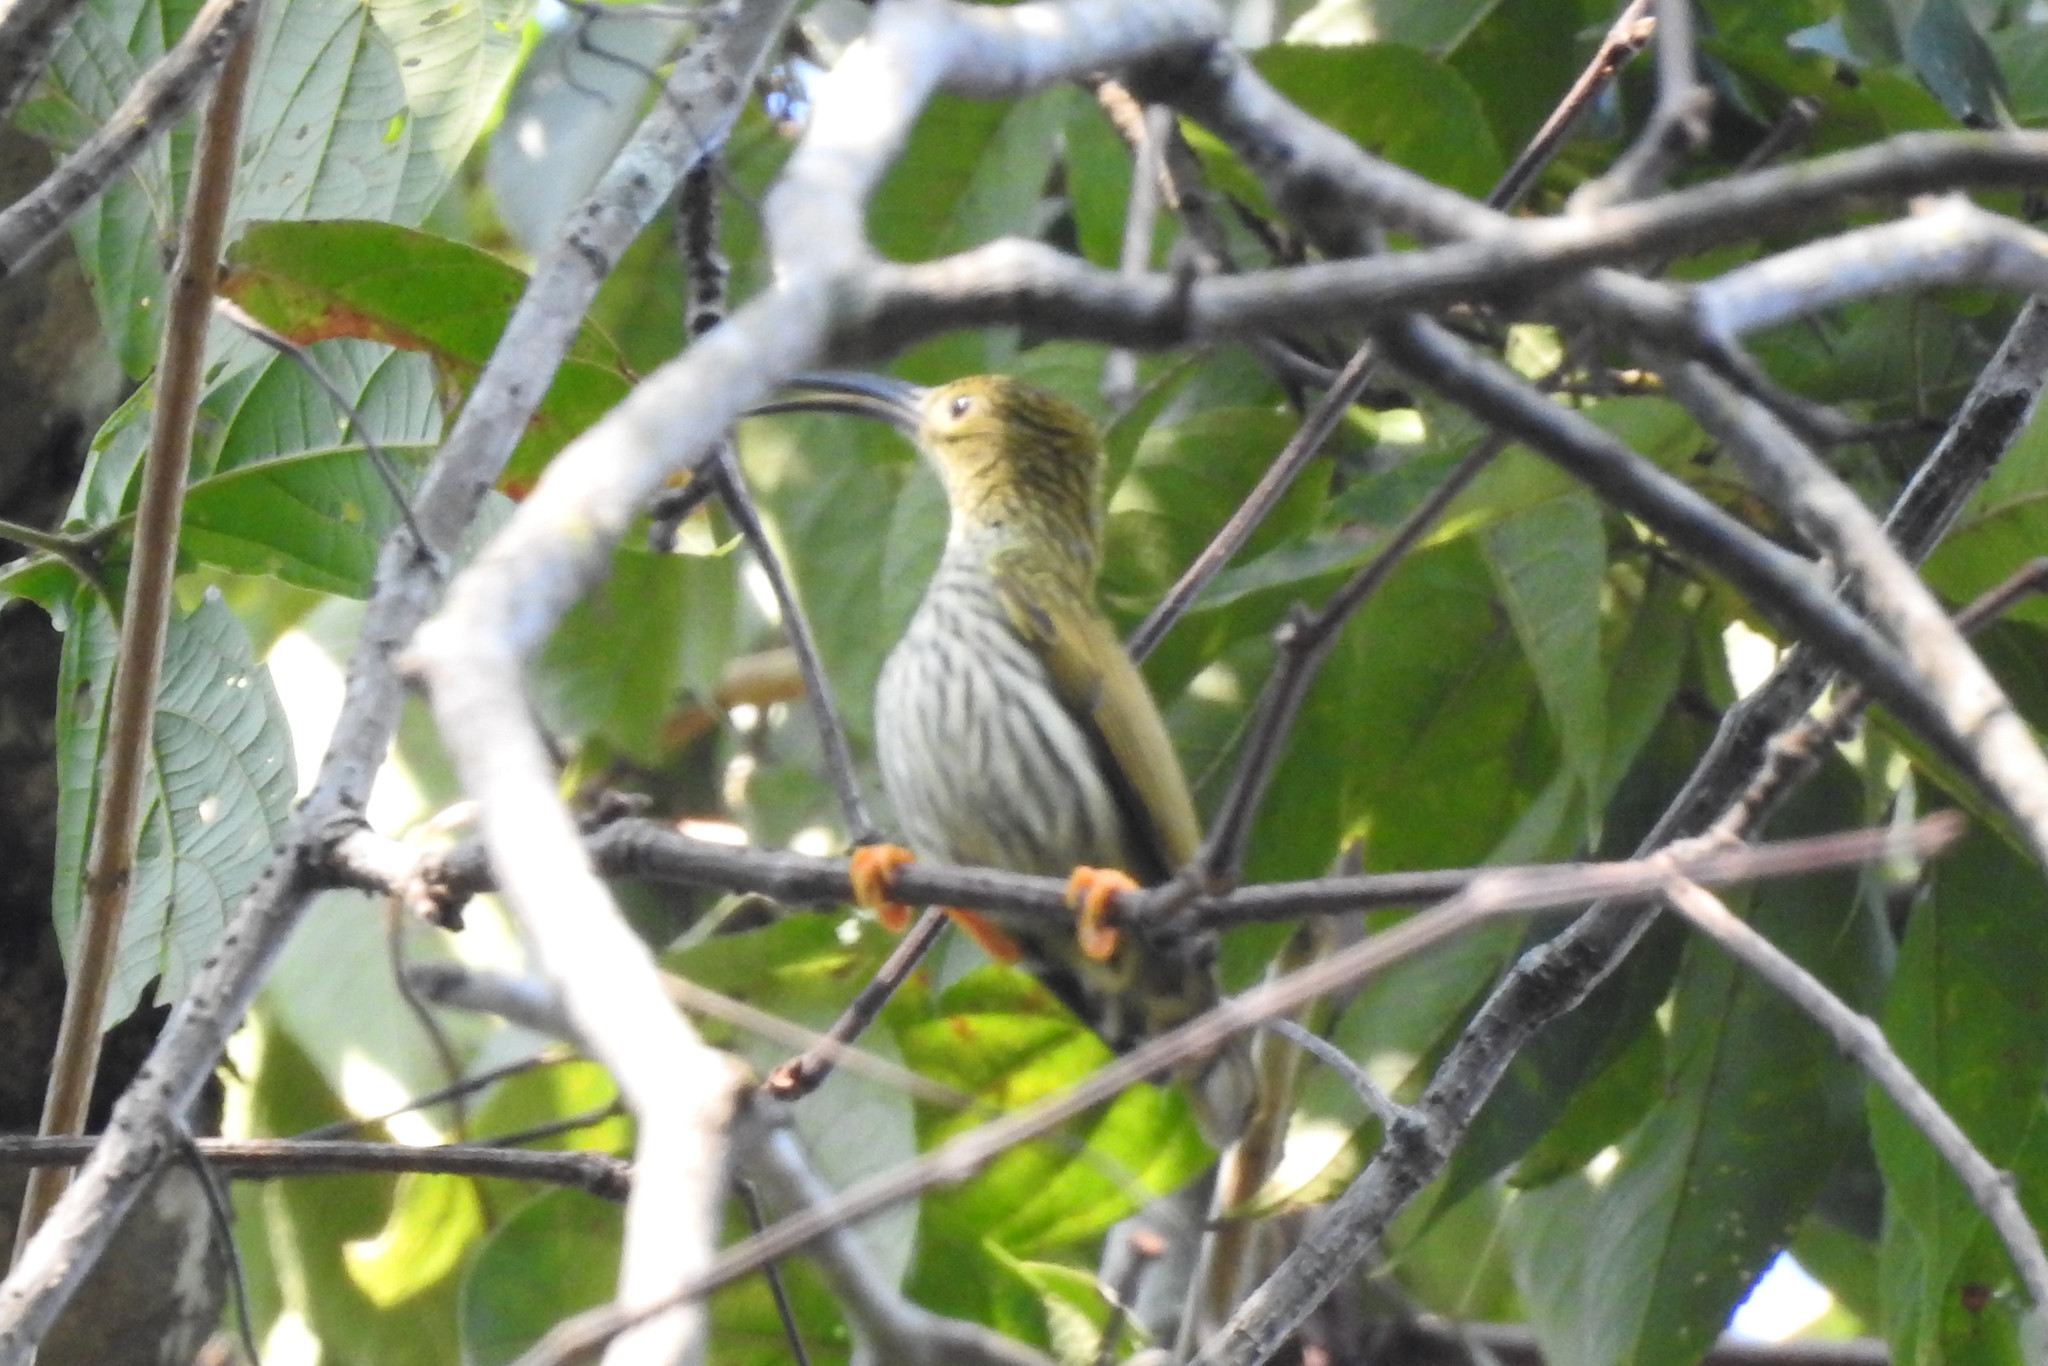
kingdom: Animalia
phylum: Chordata
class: Aves
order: Passeriformes
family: Nectariniidae
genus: Arachnothera
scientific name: Arachnothera magna
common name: Streaked spiderhunter
